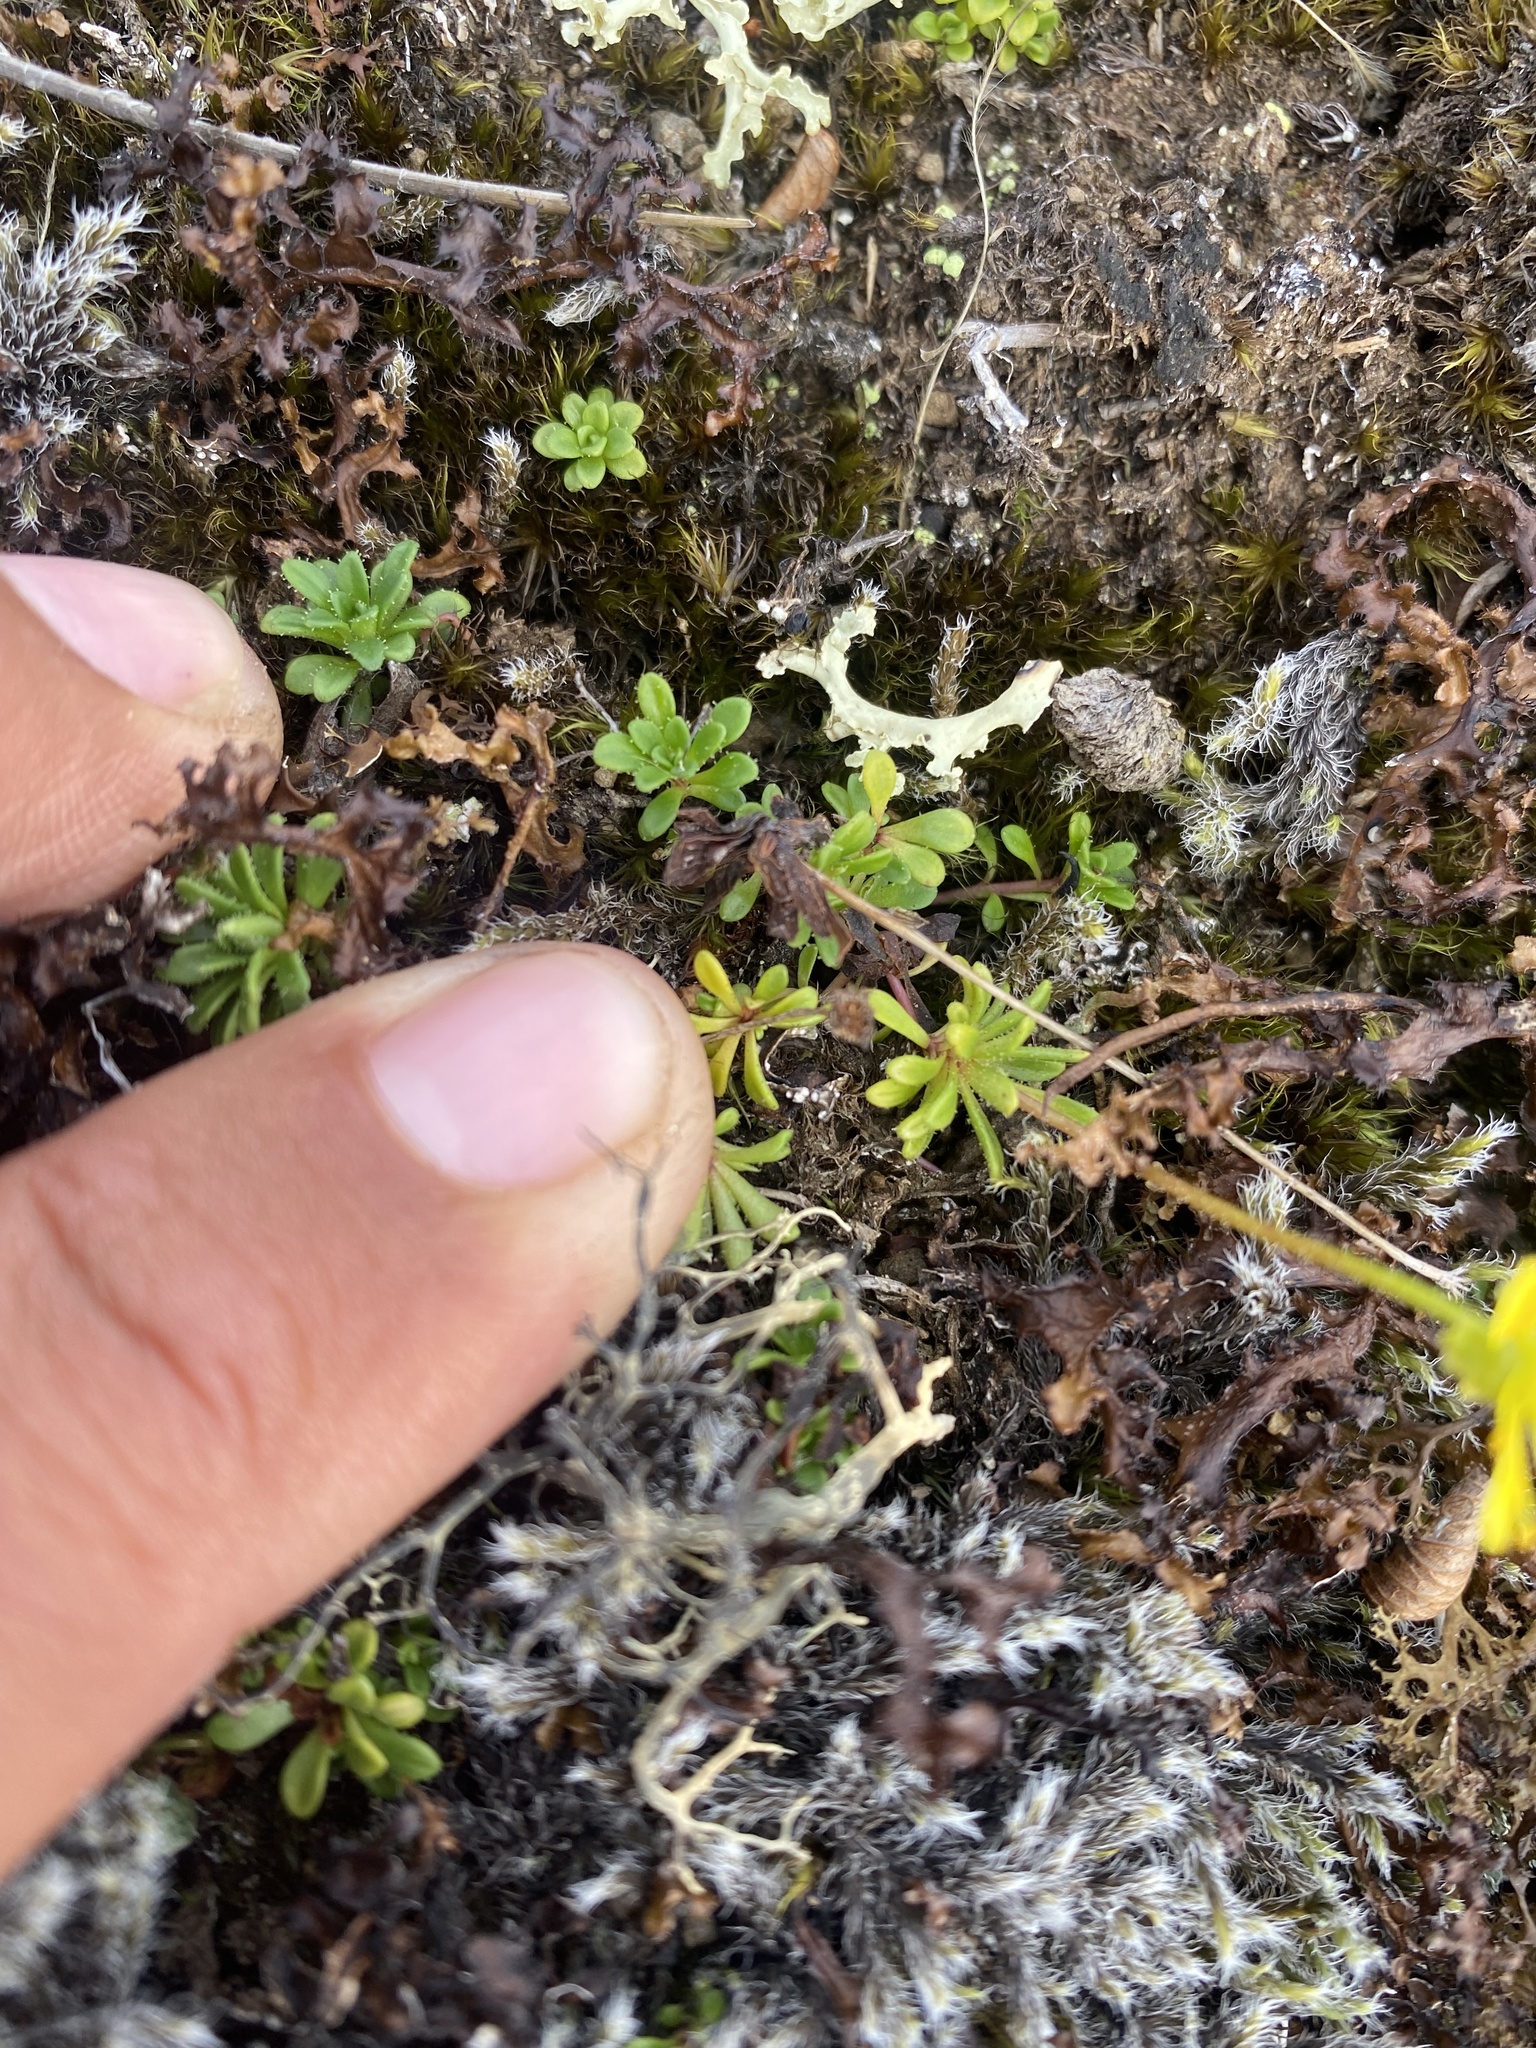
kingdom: Plantae
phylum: Tracheophyta
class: Magnoliopsida
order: Saxifragales
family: Saxifragaceae
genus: Saxifraga
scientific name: Saxifraga serpyllifolia
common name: Thyme-leaved saxifrage
